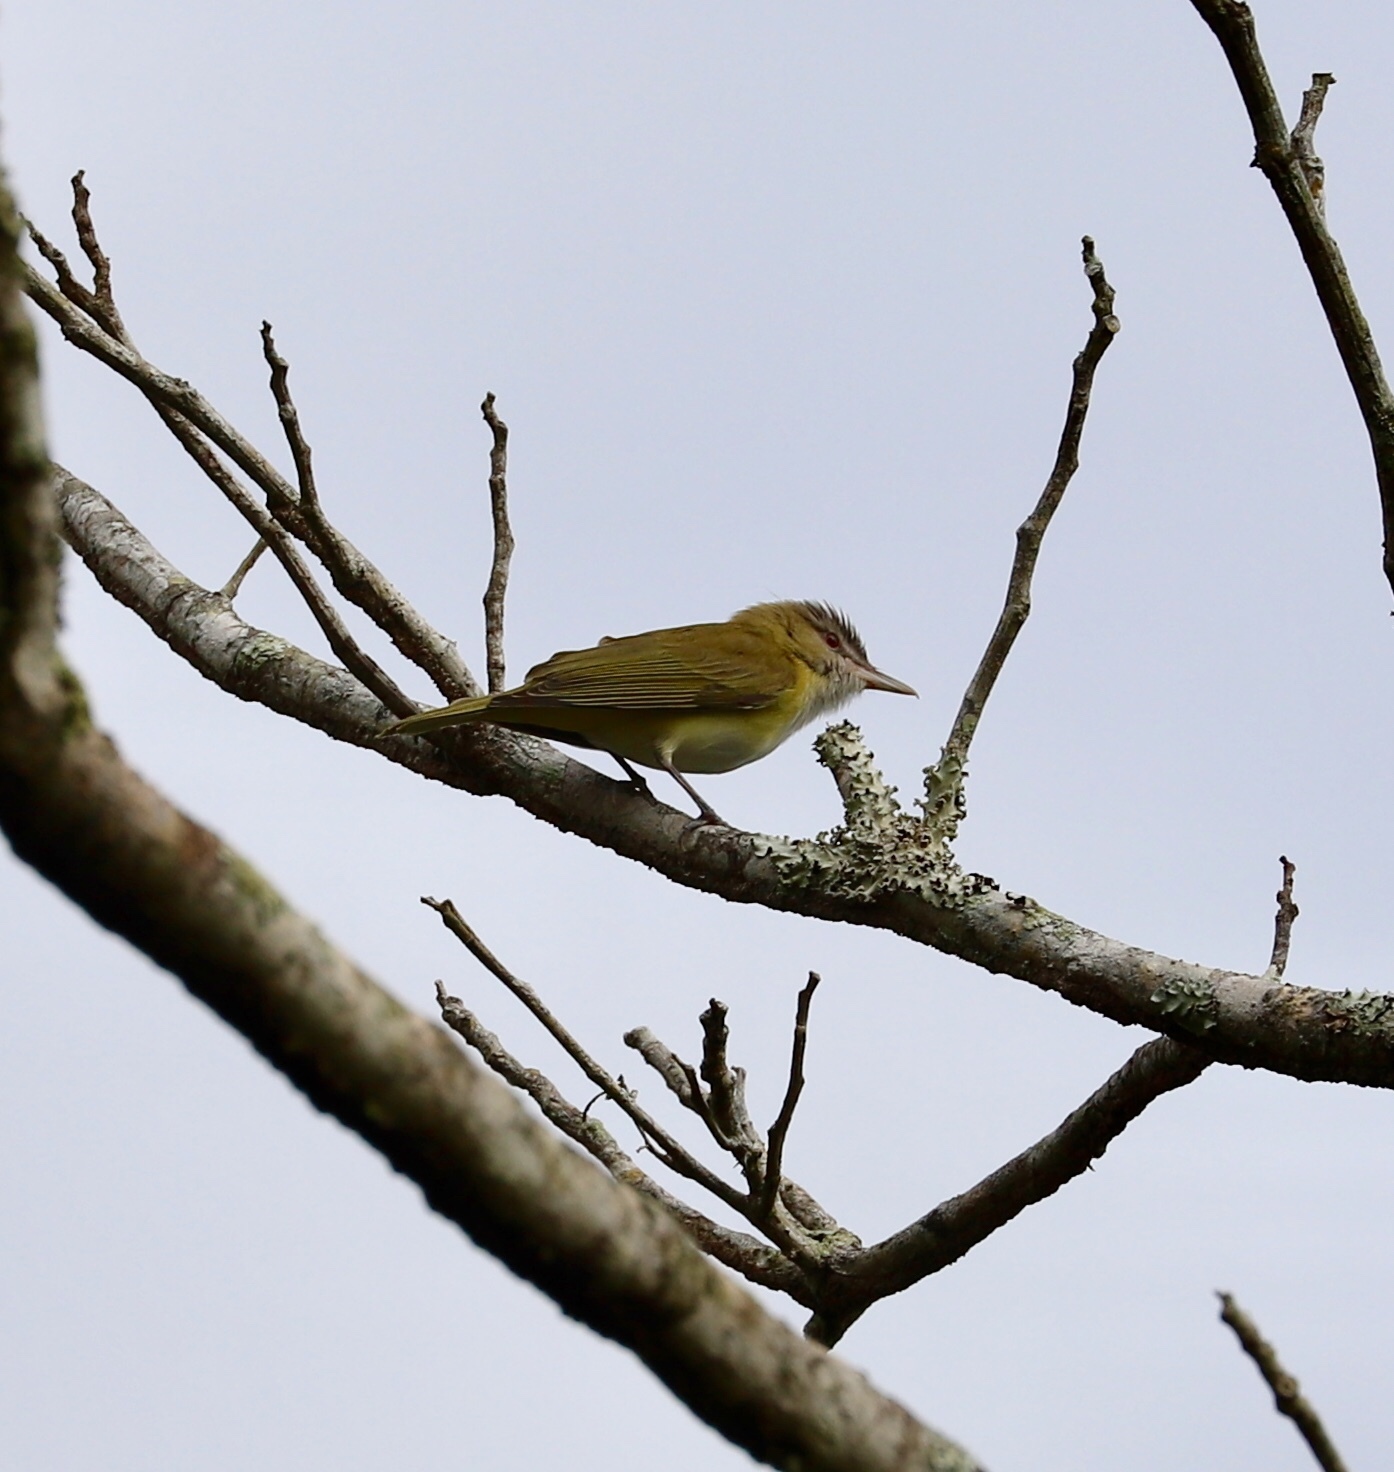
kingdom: Animalia
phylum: Chordata
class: Aves
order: Passeriformes
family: Vireonidae
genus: Vireo
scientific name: Vireo flavoviridis
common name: Yellow-green vireo
